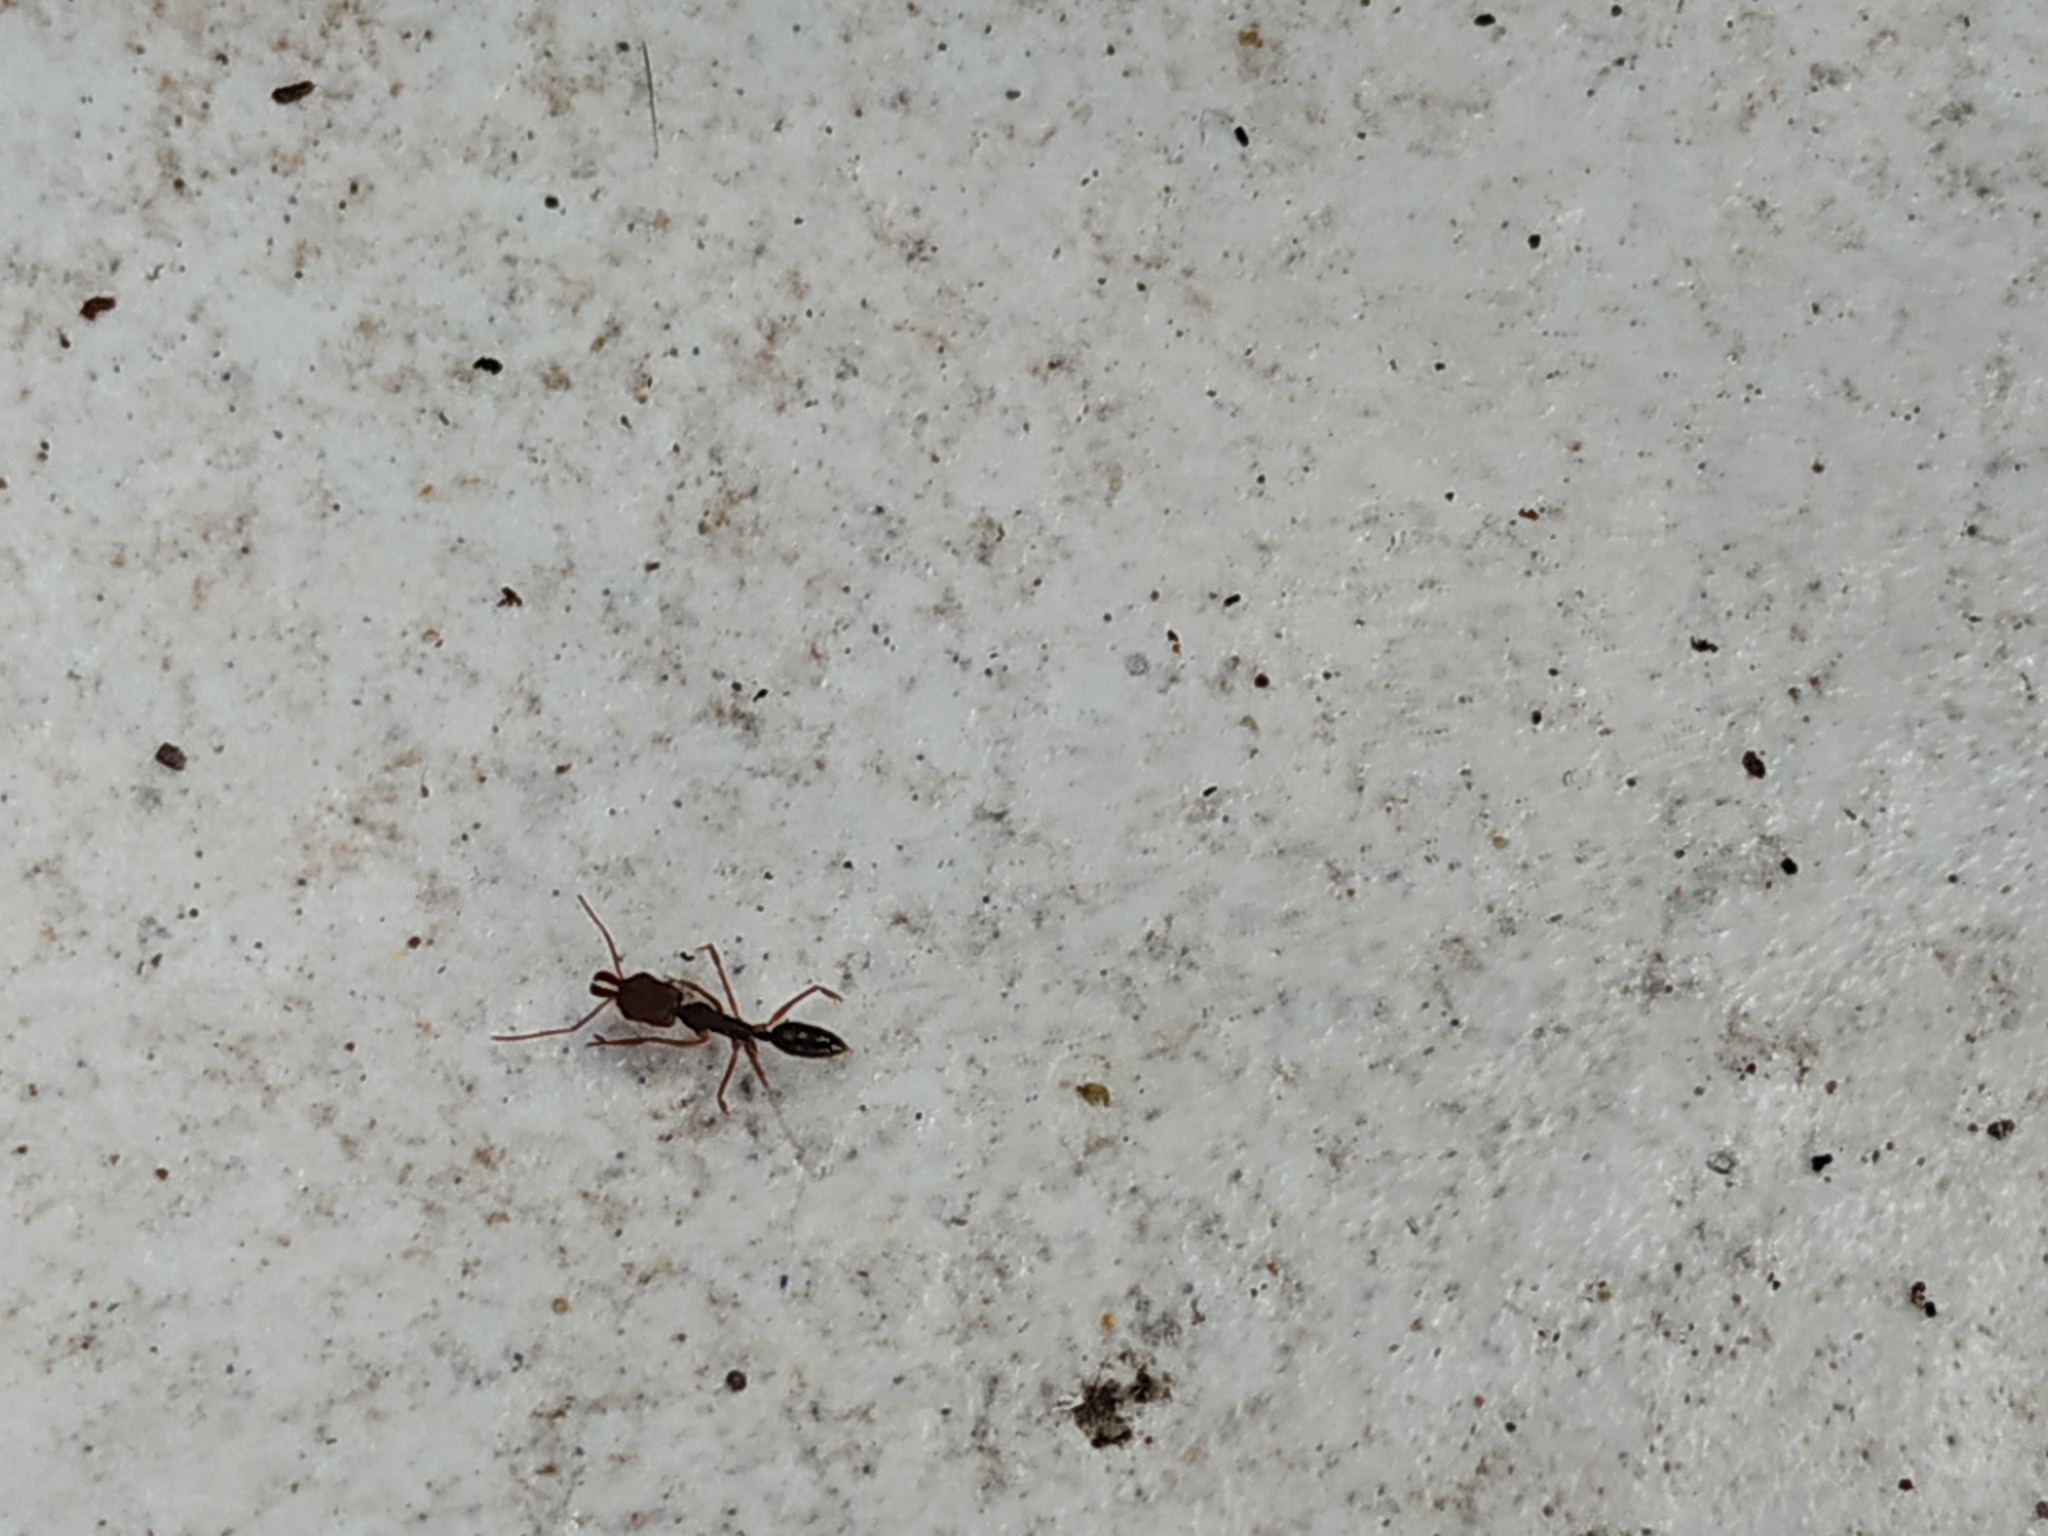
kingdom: Animalia
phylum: Arthropoda
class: Insecta
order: Hymenoptera
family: Formicidae
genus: Odontomachus
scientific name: Odontomachus ruginodis
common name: Trapjaw ant
